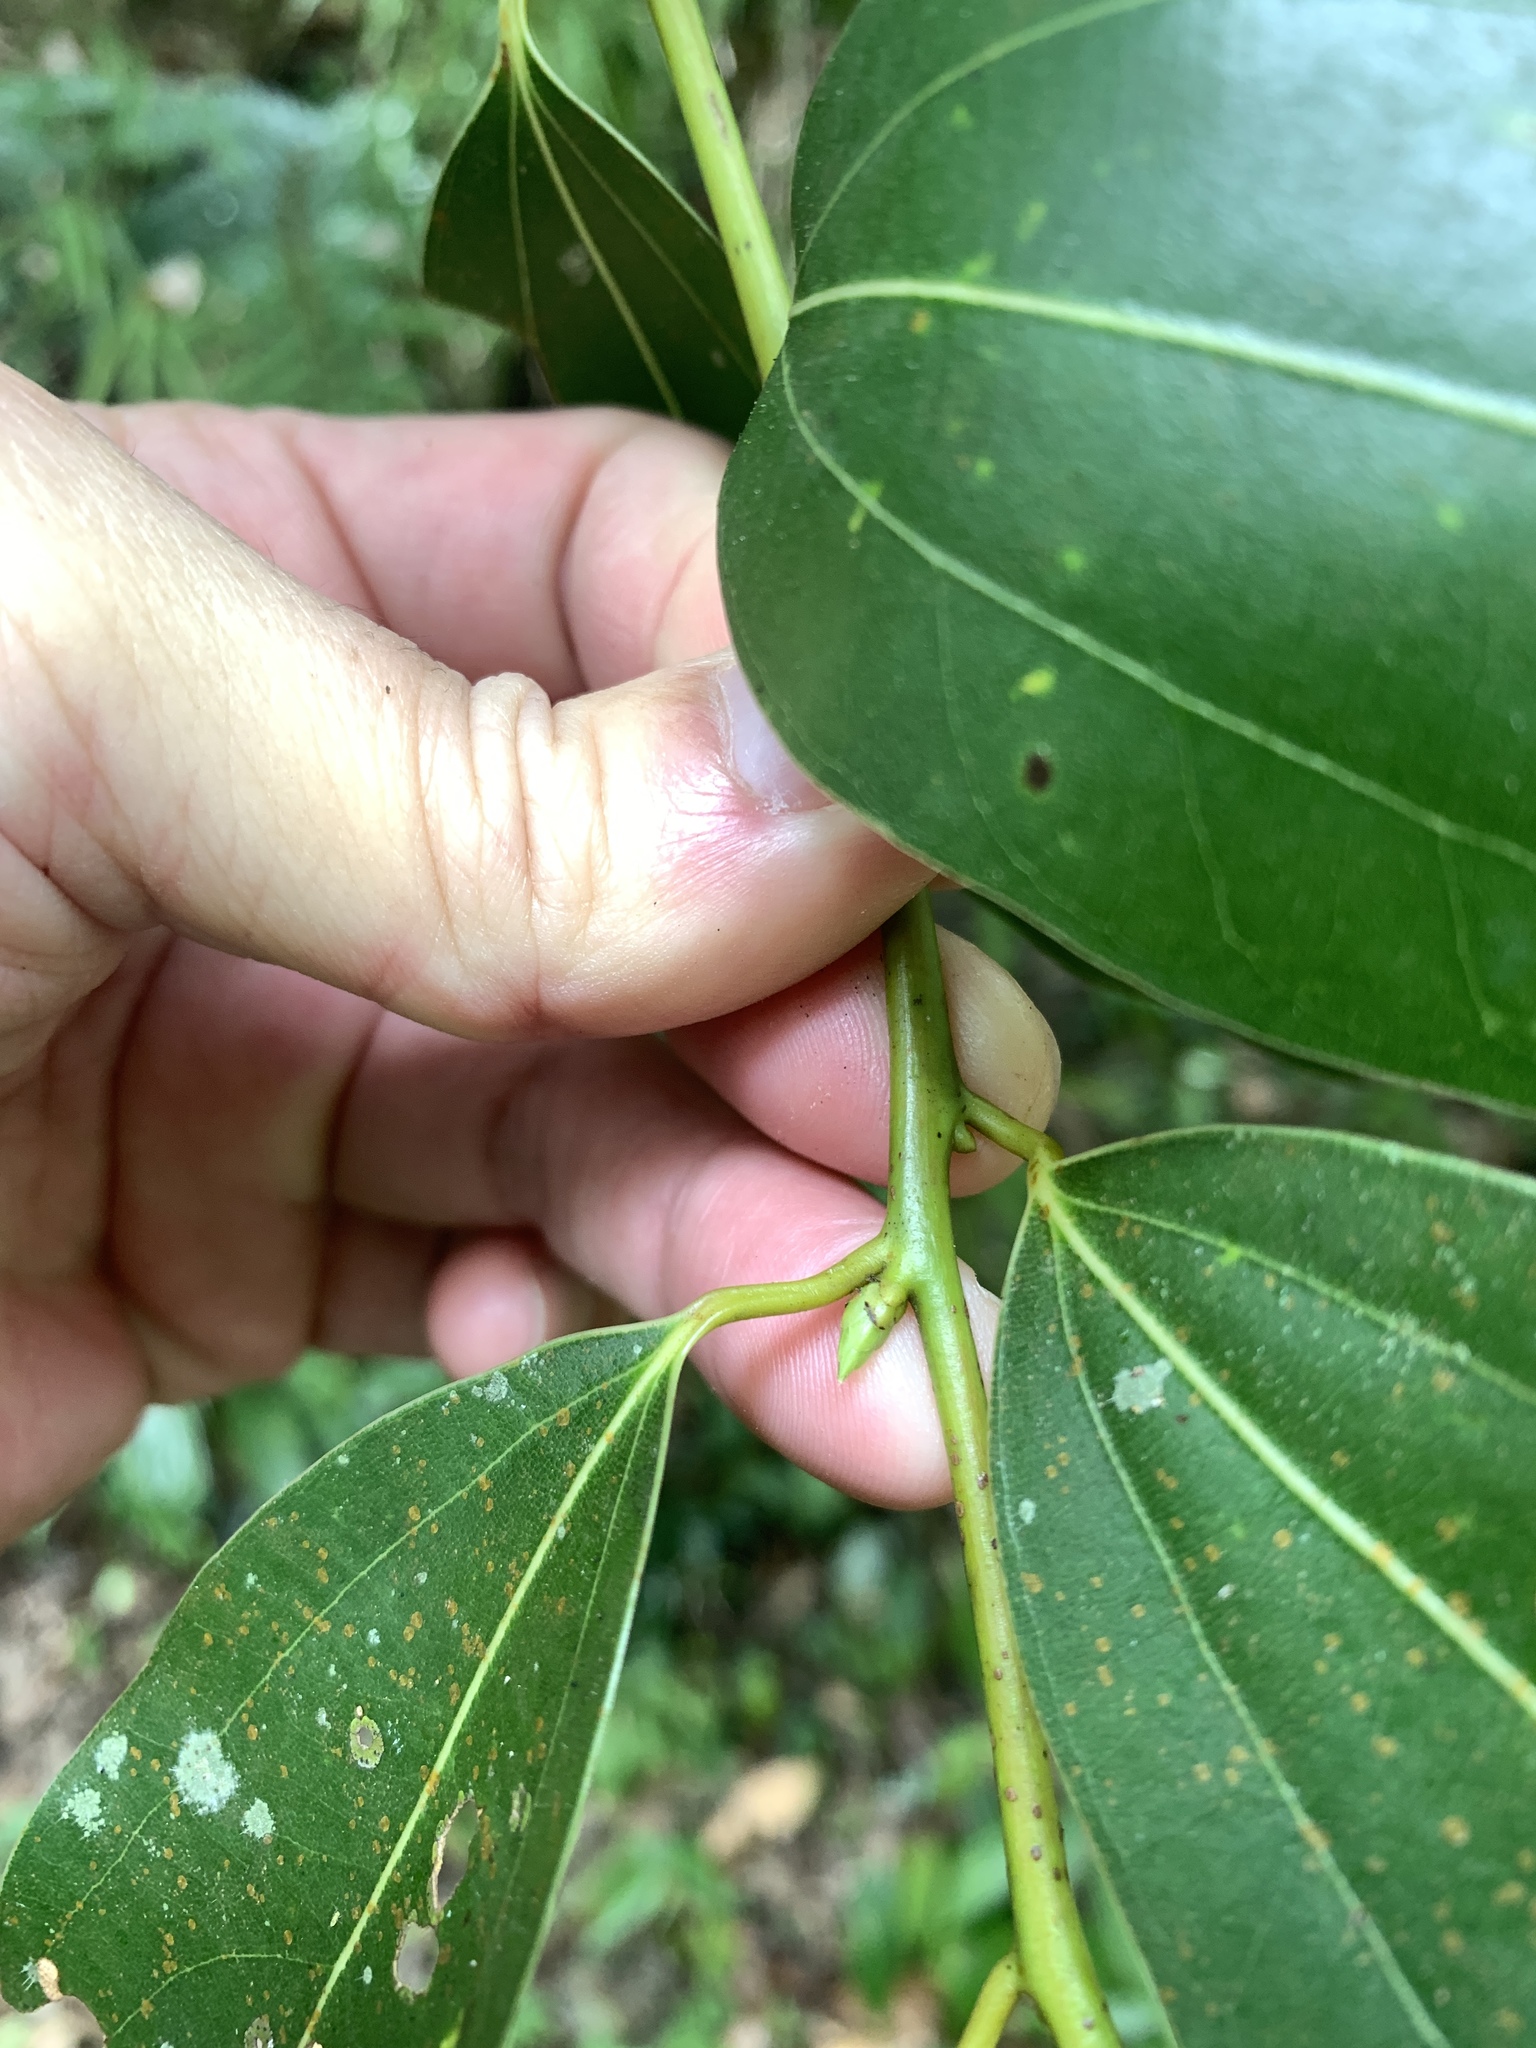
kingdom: Plantae
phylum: Tracheophyta
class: Magnoliopsida
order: Laurales
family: Lauraceae
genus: Cinnamomum
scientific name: Cinnamomum chekiangense
